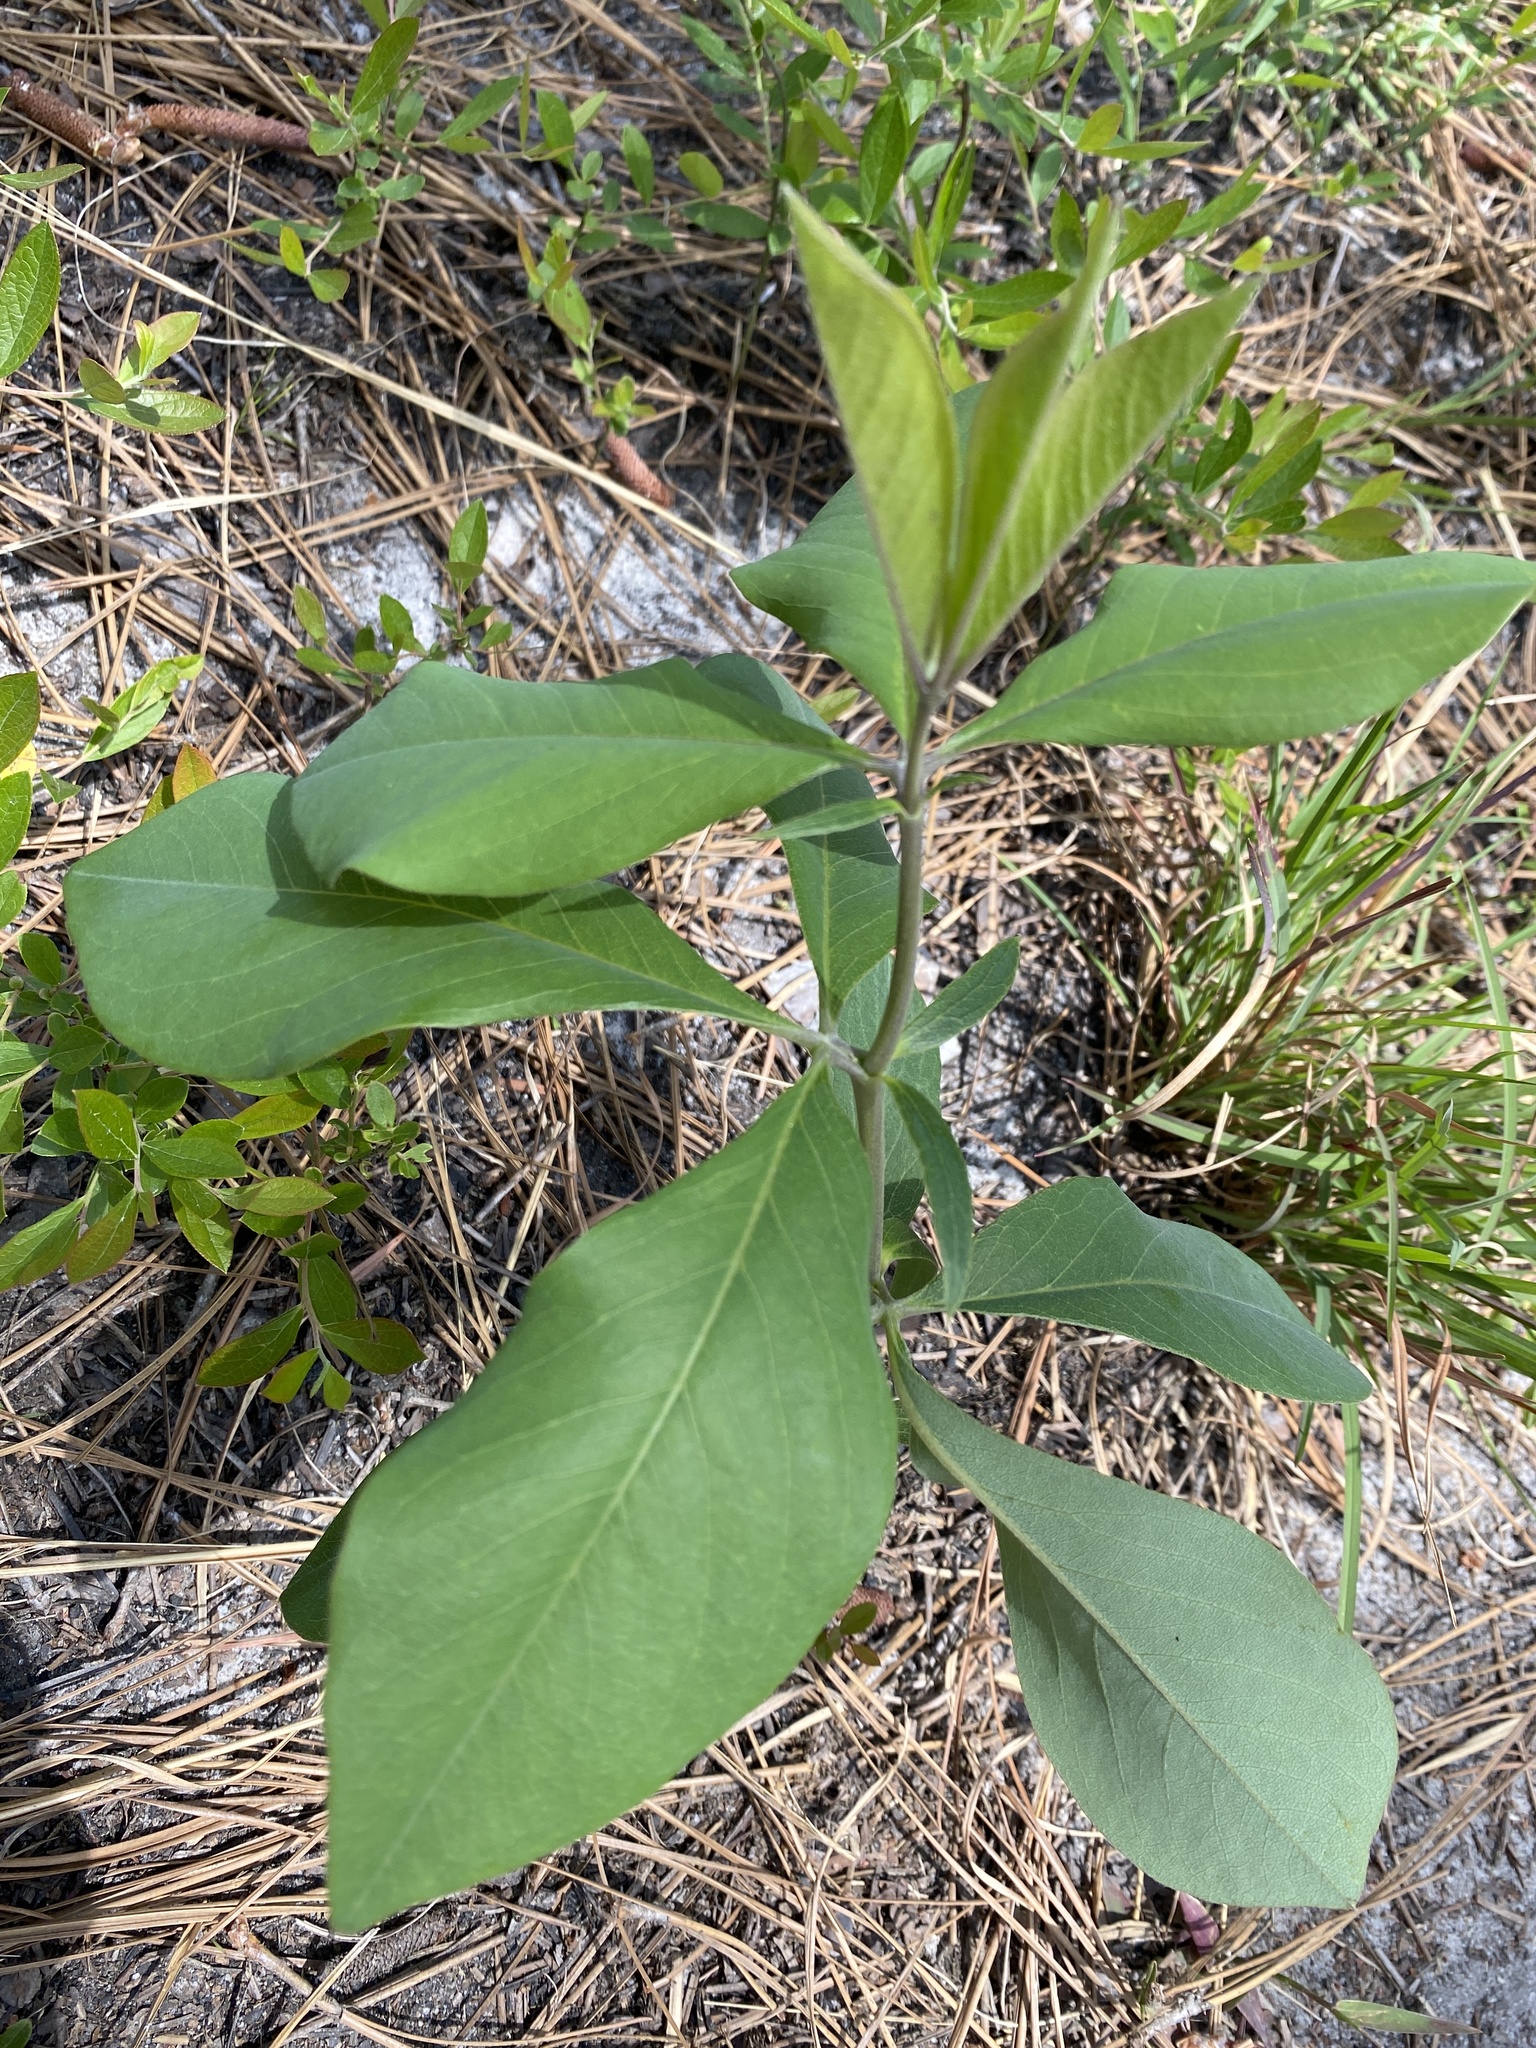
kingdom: Plantae
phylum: Tracheophyta
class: Magnoliopsida
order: Fabales
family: Fabaceae
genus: Baptisia
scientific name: Baptisia cinerea
